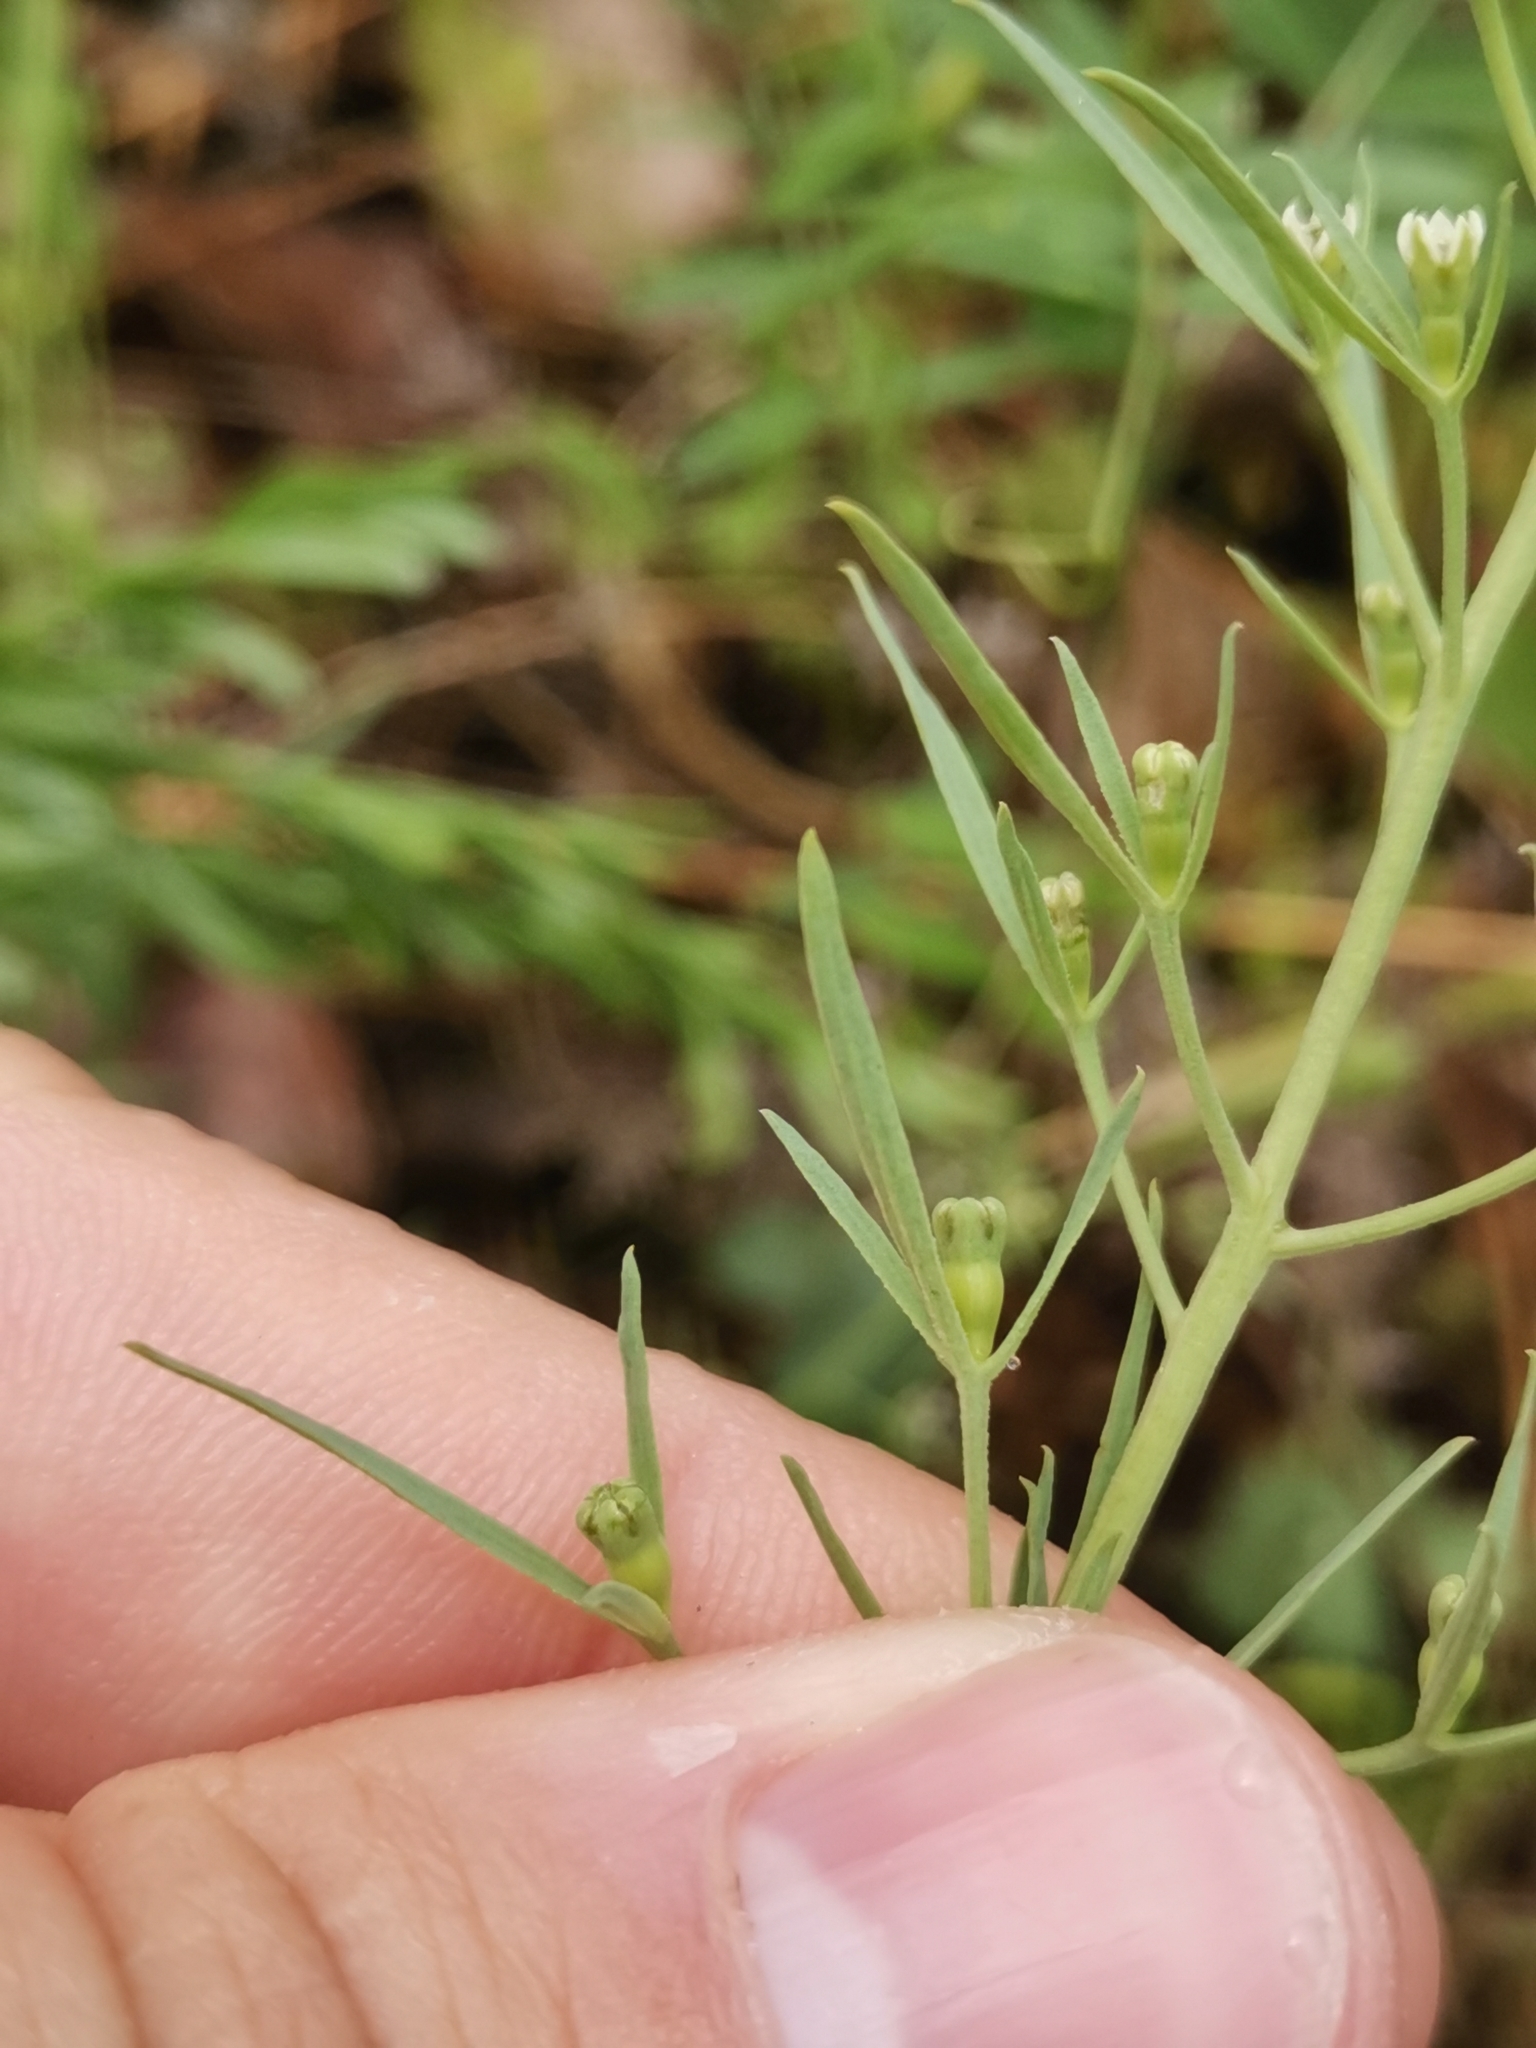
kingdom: Plantae
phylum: Tracheophyta
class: Magnoliopsida
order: Santalales
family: Thesiaceae
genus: Thesium
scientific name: Thesium ramosum
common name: Field thesium
